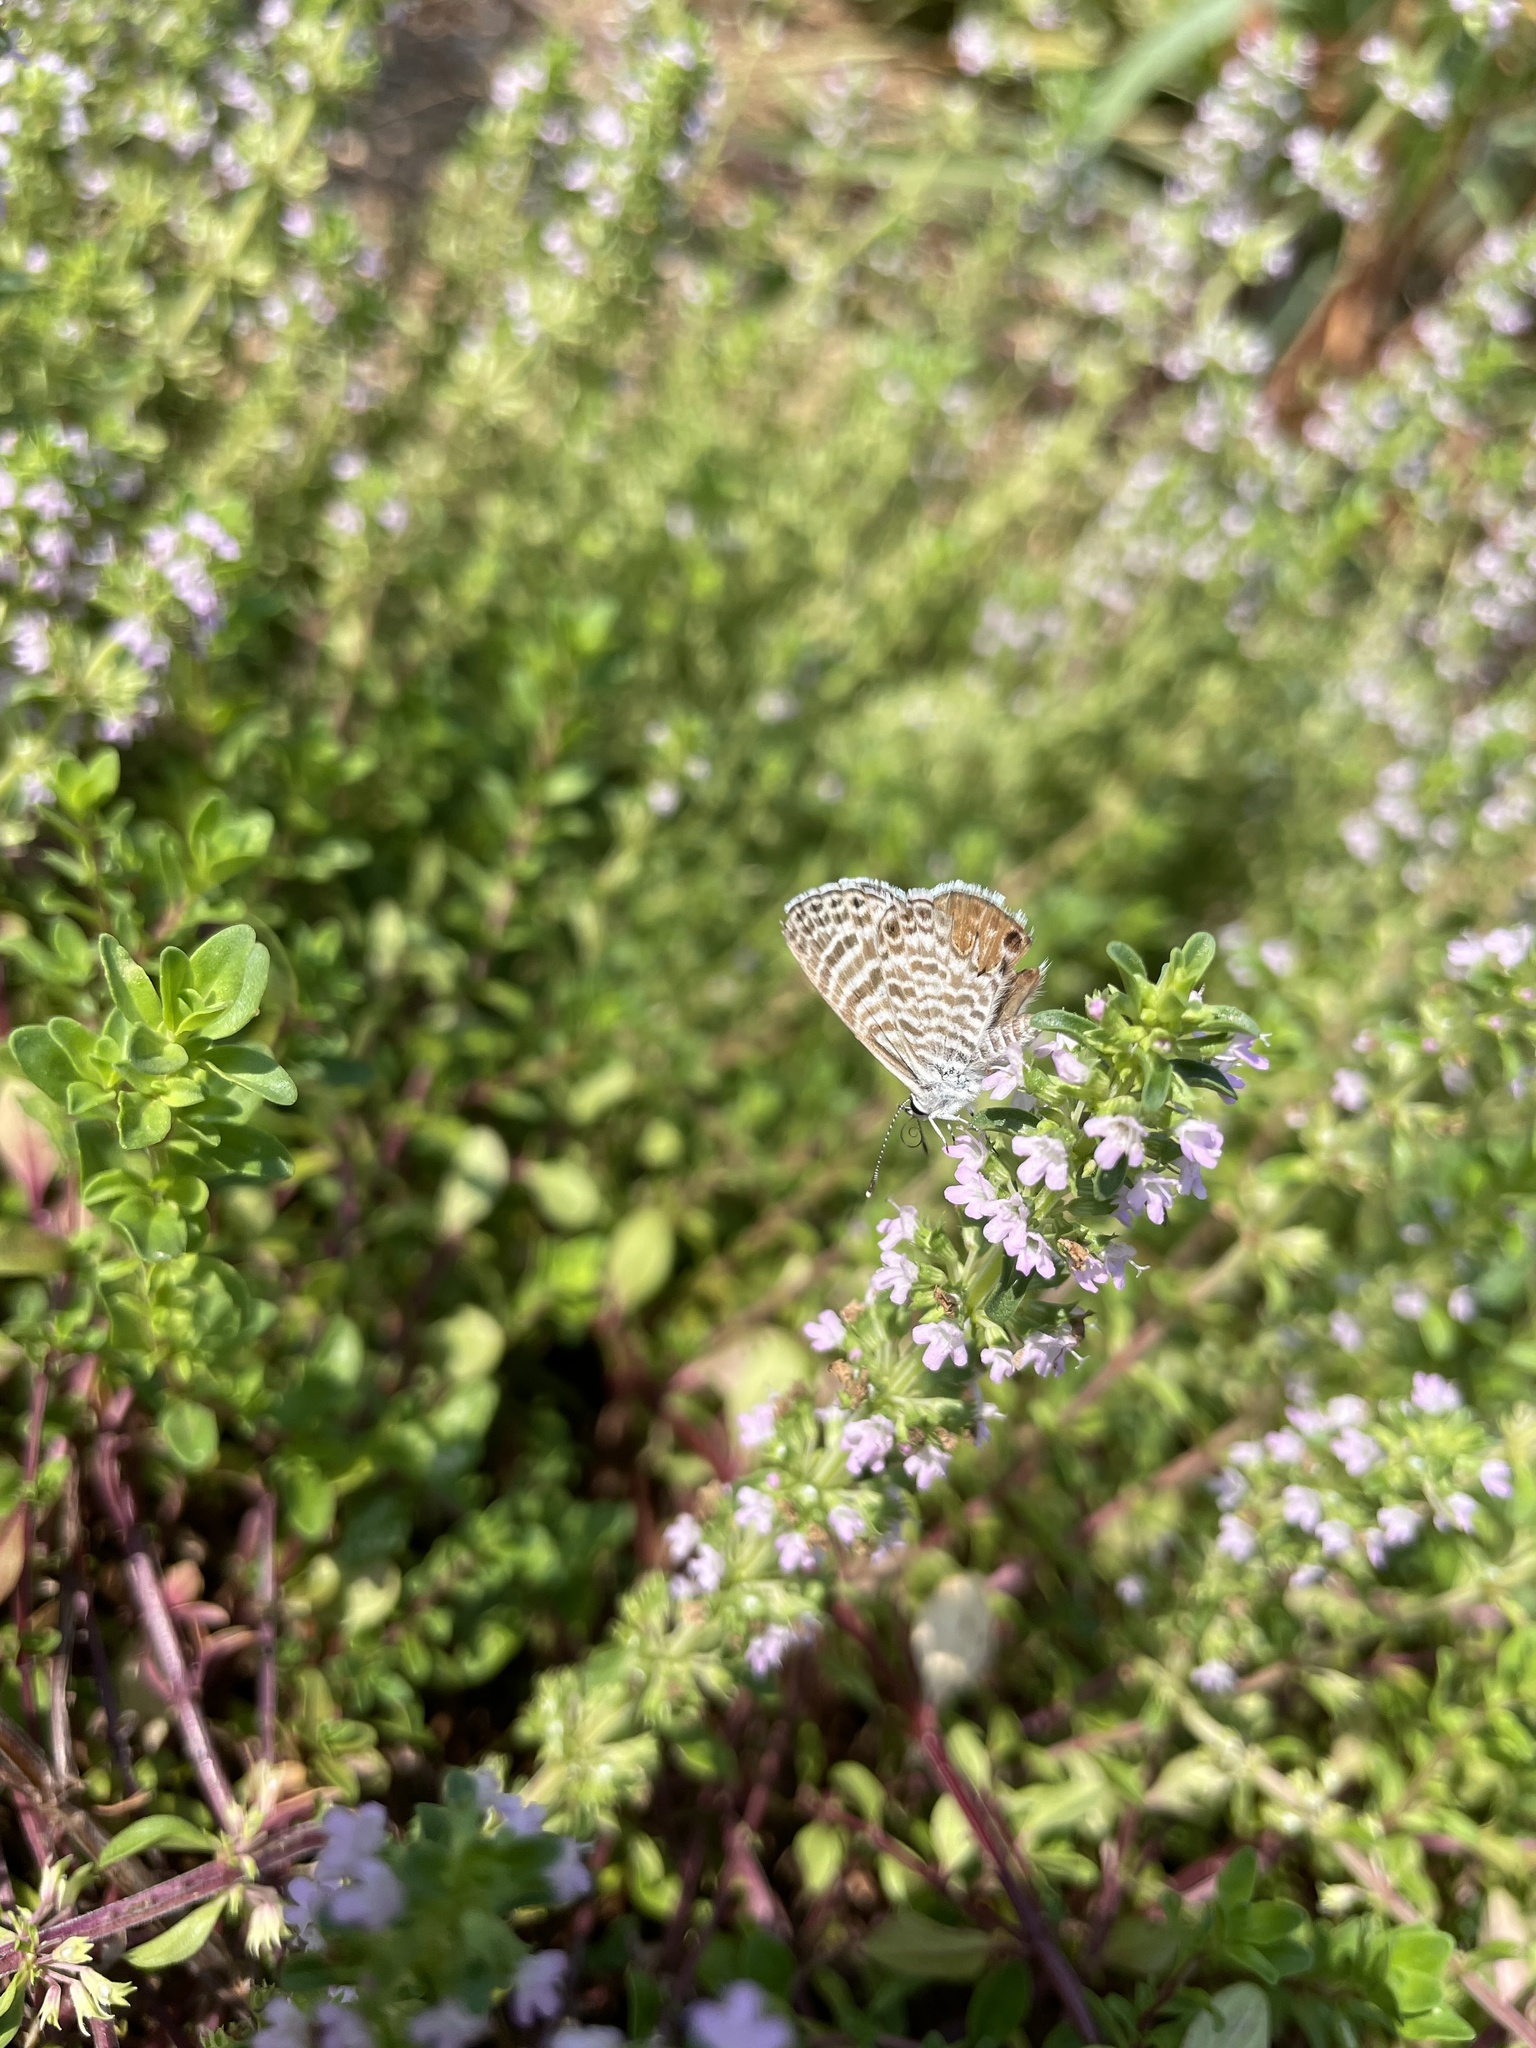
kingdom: Animalia
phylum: Arthropoda
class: Insecta
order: Lepidoptera
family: Lycaenidae
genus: Leptotes
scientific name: Leptotes marina
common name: Marine blue
